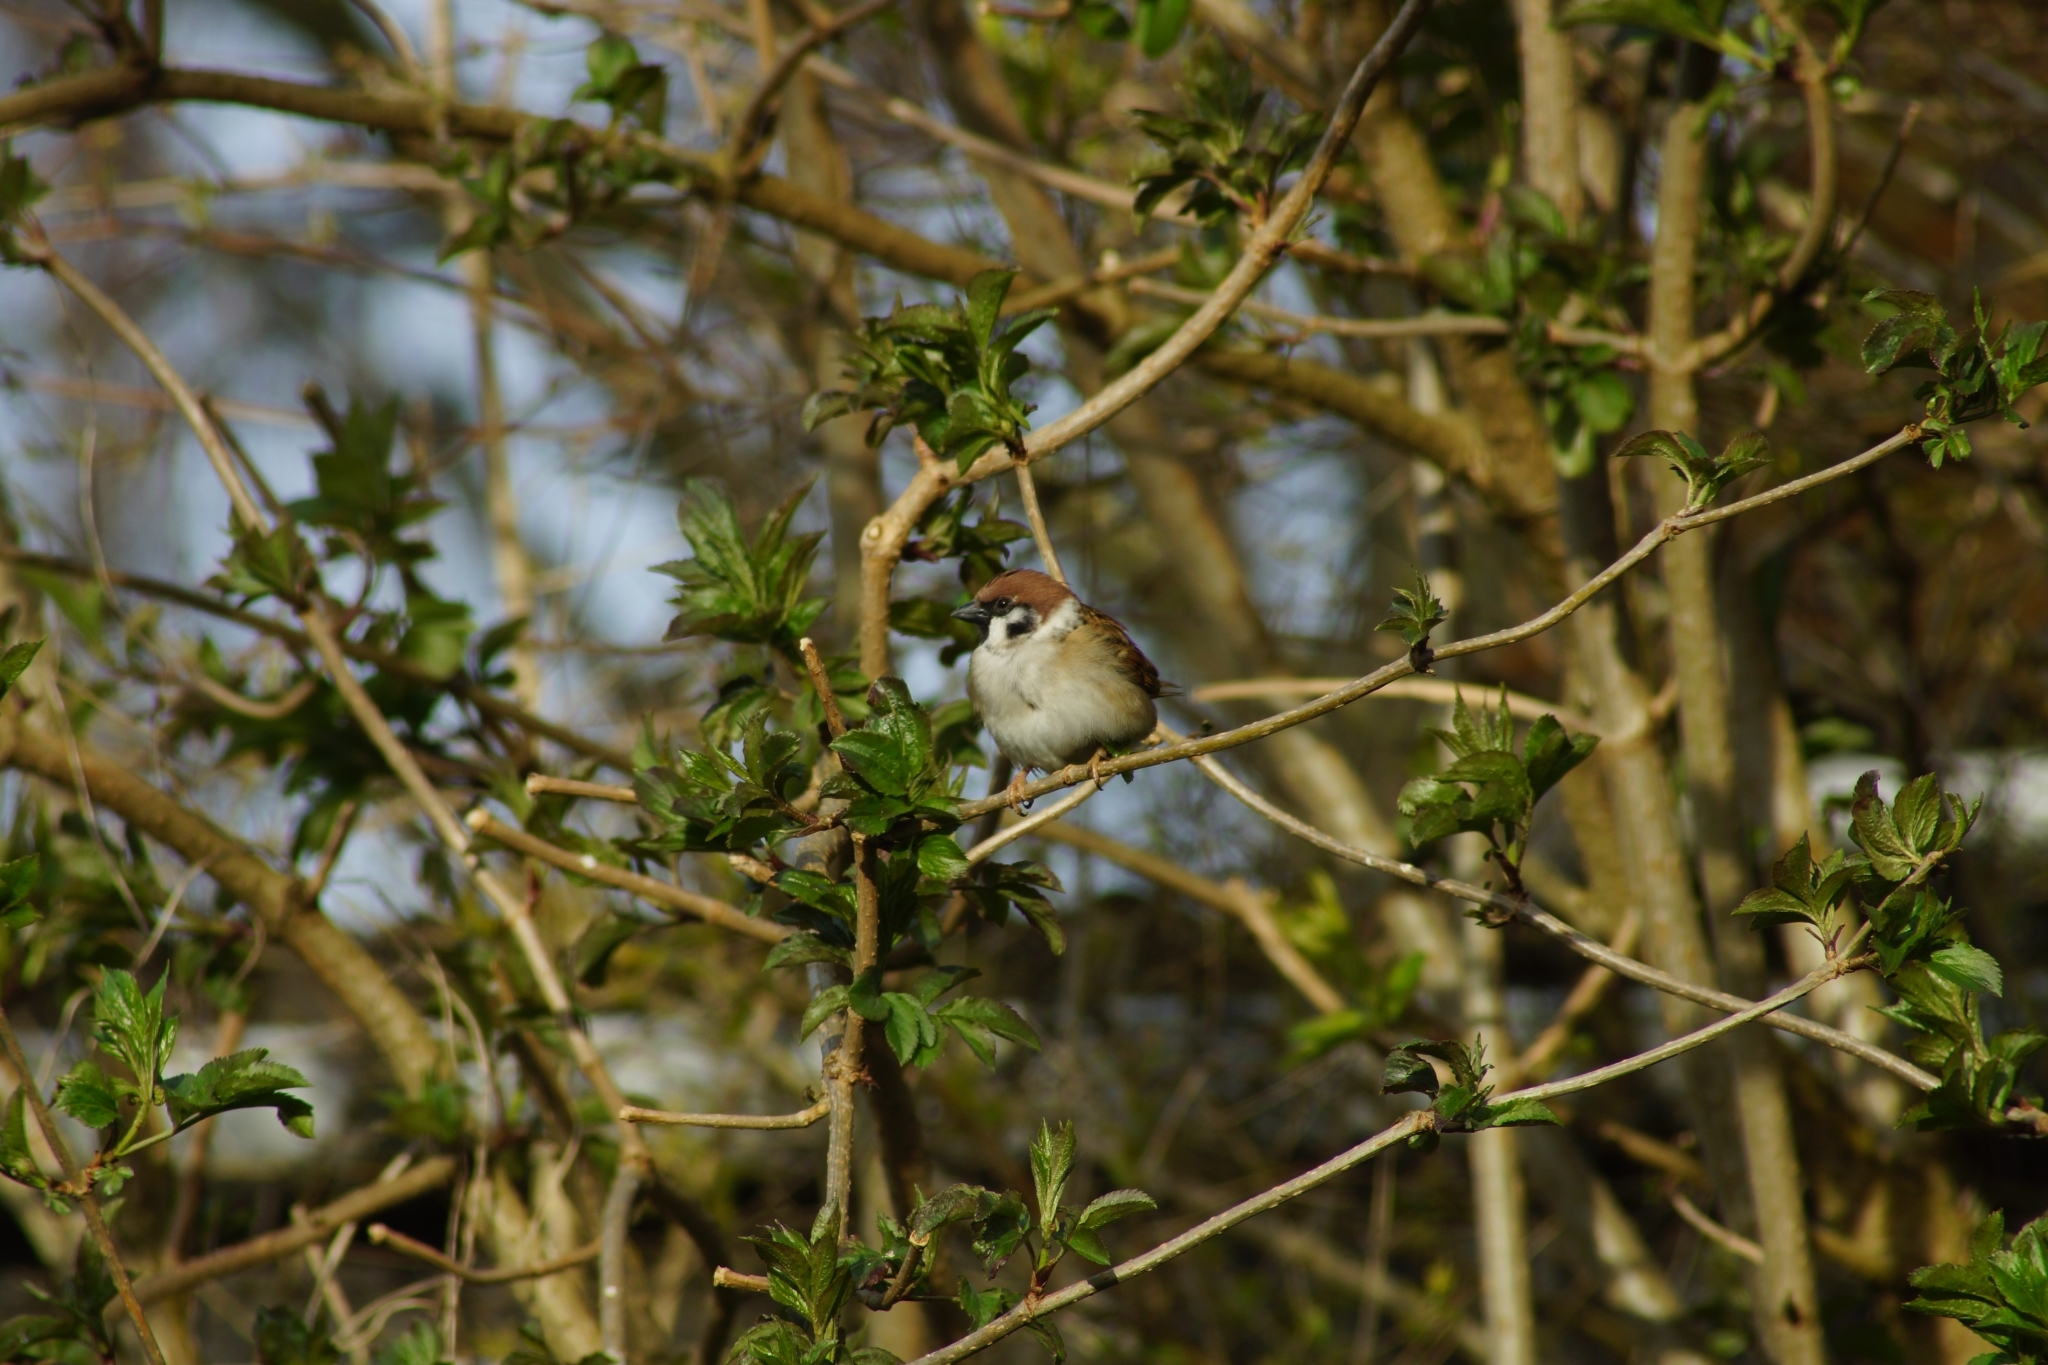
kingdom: Animalia
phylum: Chordata
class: Aves
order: Passeriformes
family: Passeridae
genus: Passer
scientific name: Passer montanus
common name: Eurasian tree sparrow
